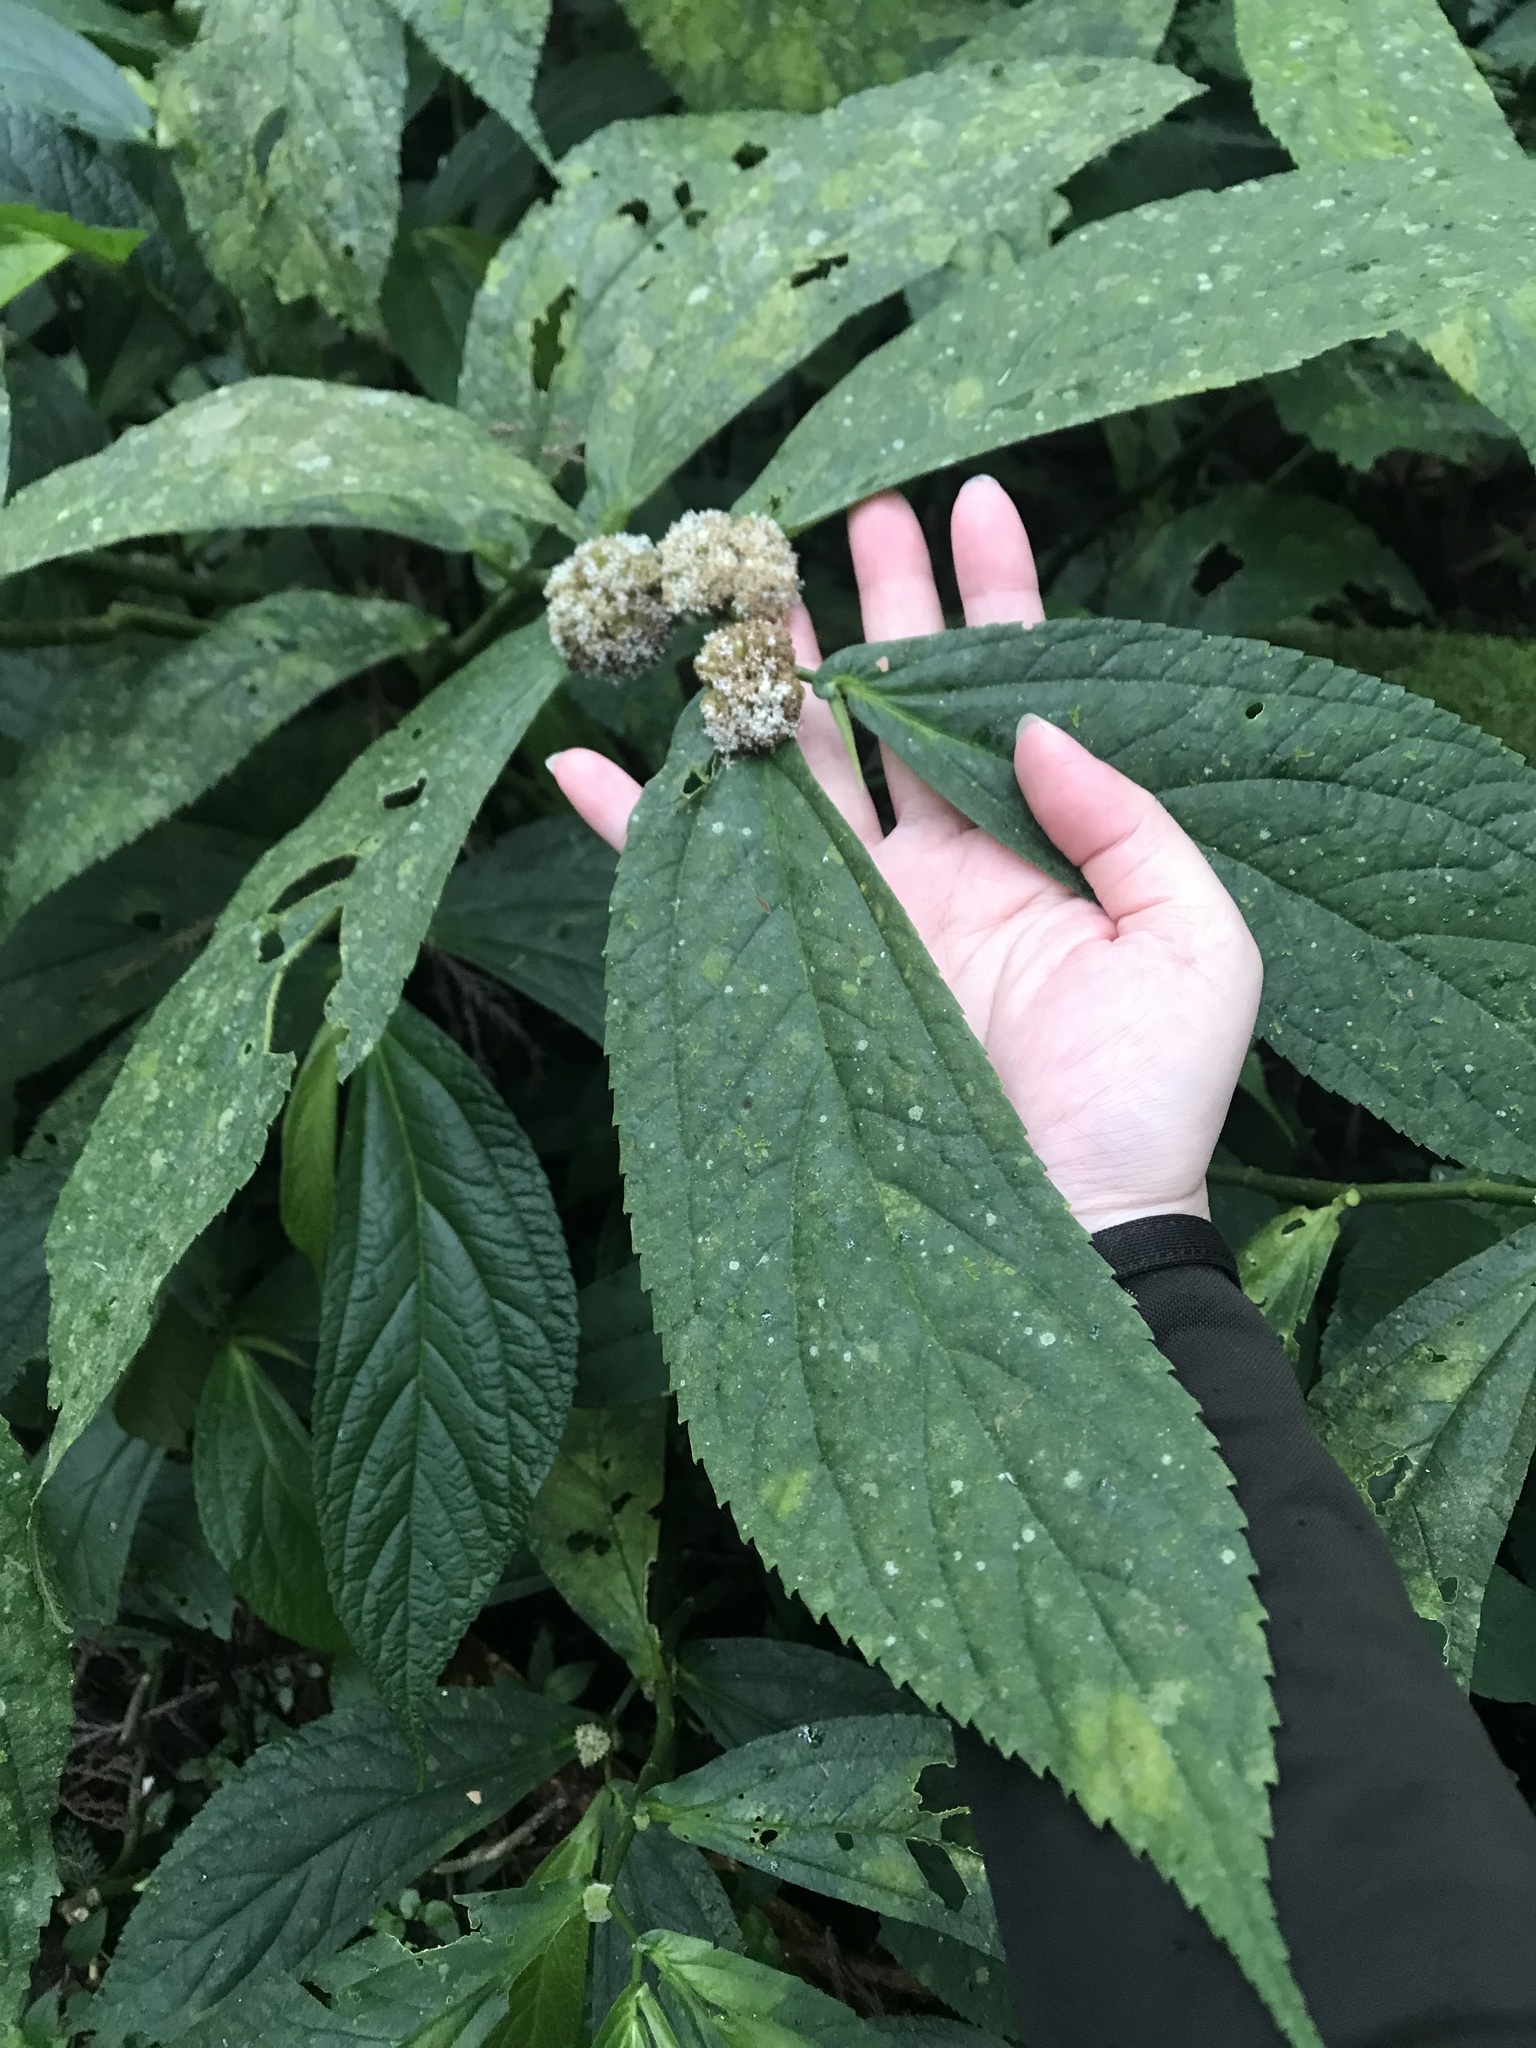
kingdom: Plantae
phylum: Tracheophyta
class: Magnoliopsida
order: Rosales
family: Urticaceae
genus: Elatostema
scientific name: Elatostema platyphyllum
